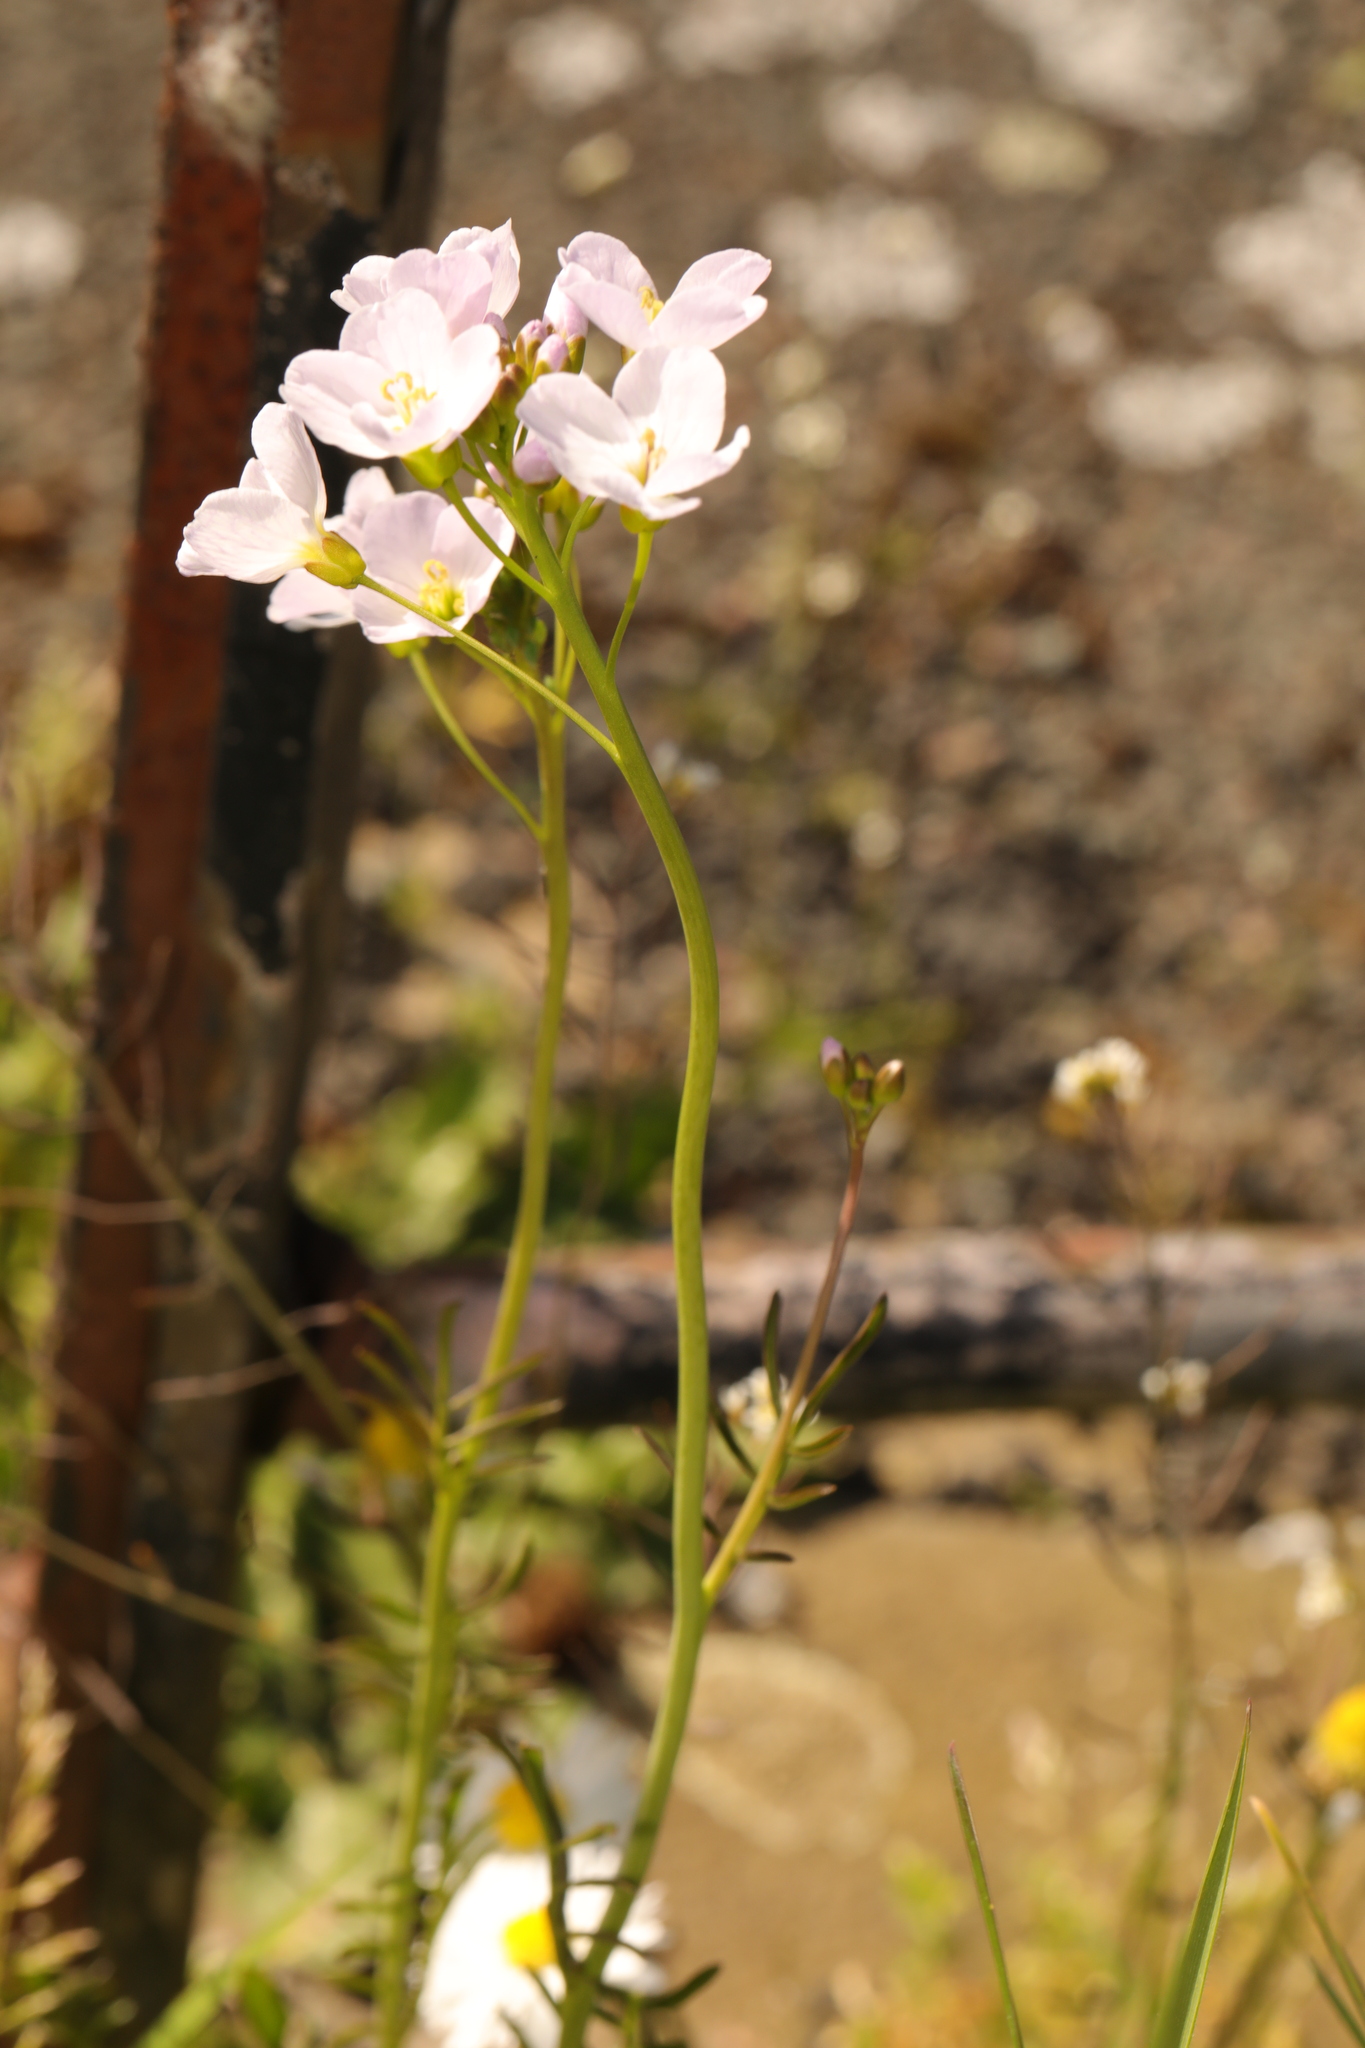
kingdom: Plantae
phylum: Tracheophyta
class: Magnoliopsida
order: Brassicales
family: Brassicaceae
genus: Cardamine
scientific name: Cardamine pratensis
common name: Cuckoo flower
